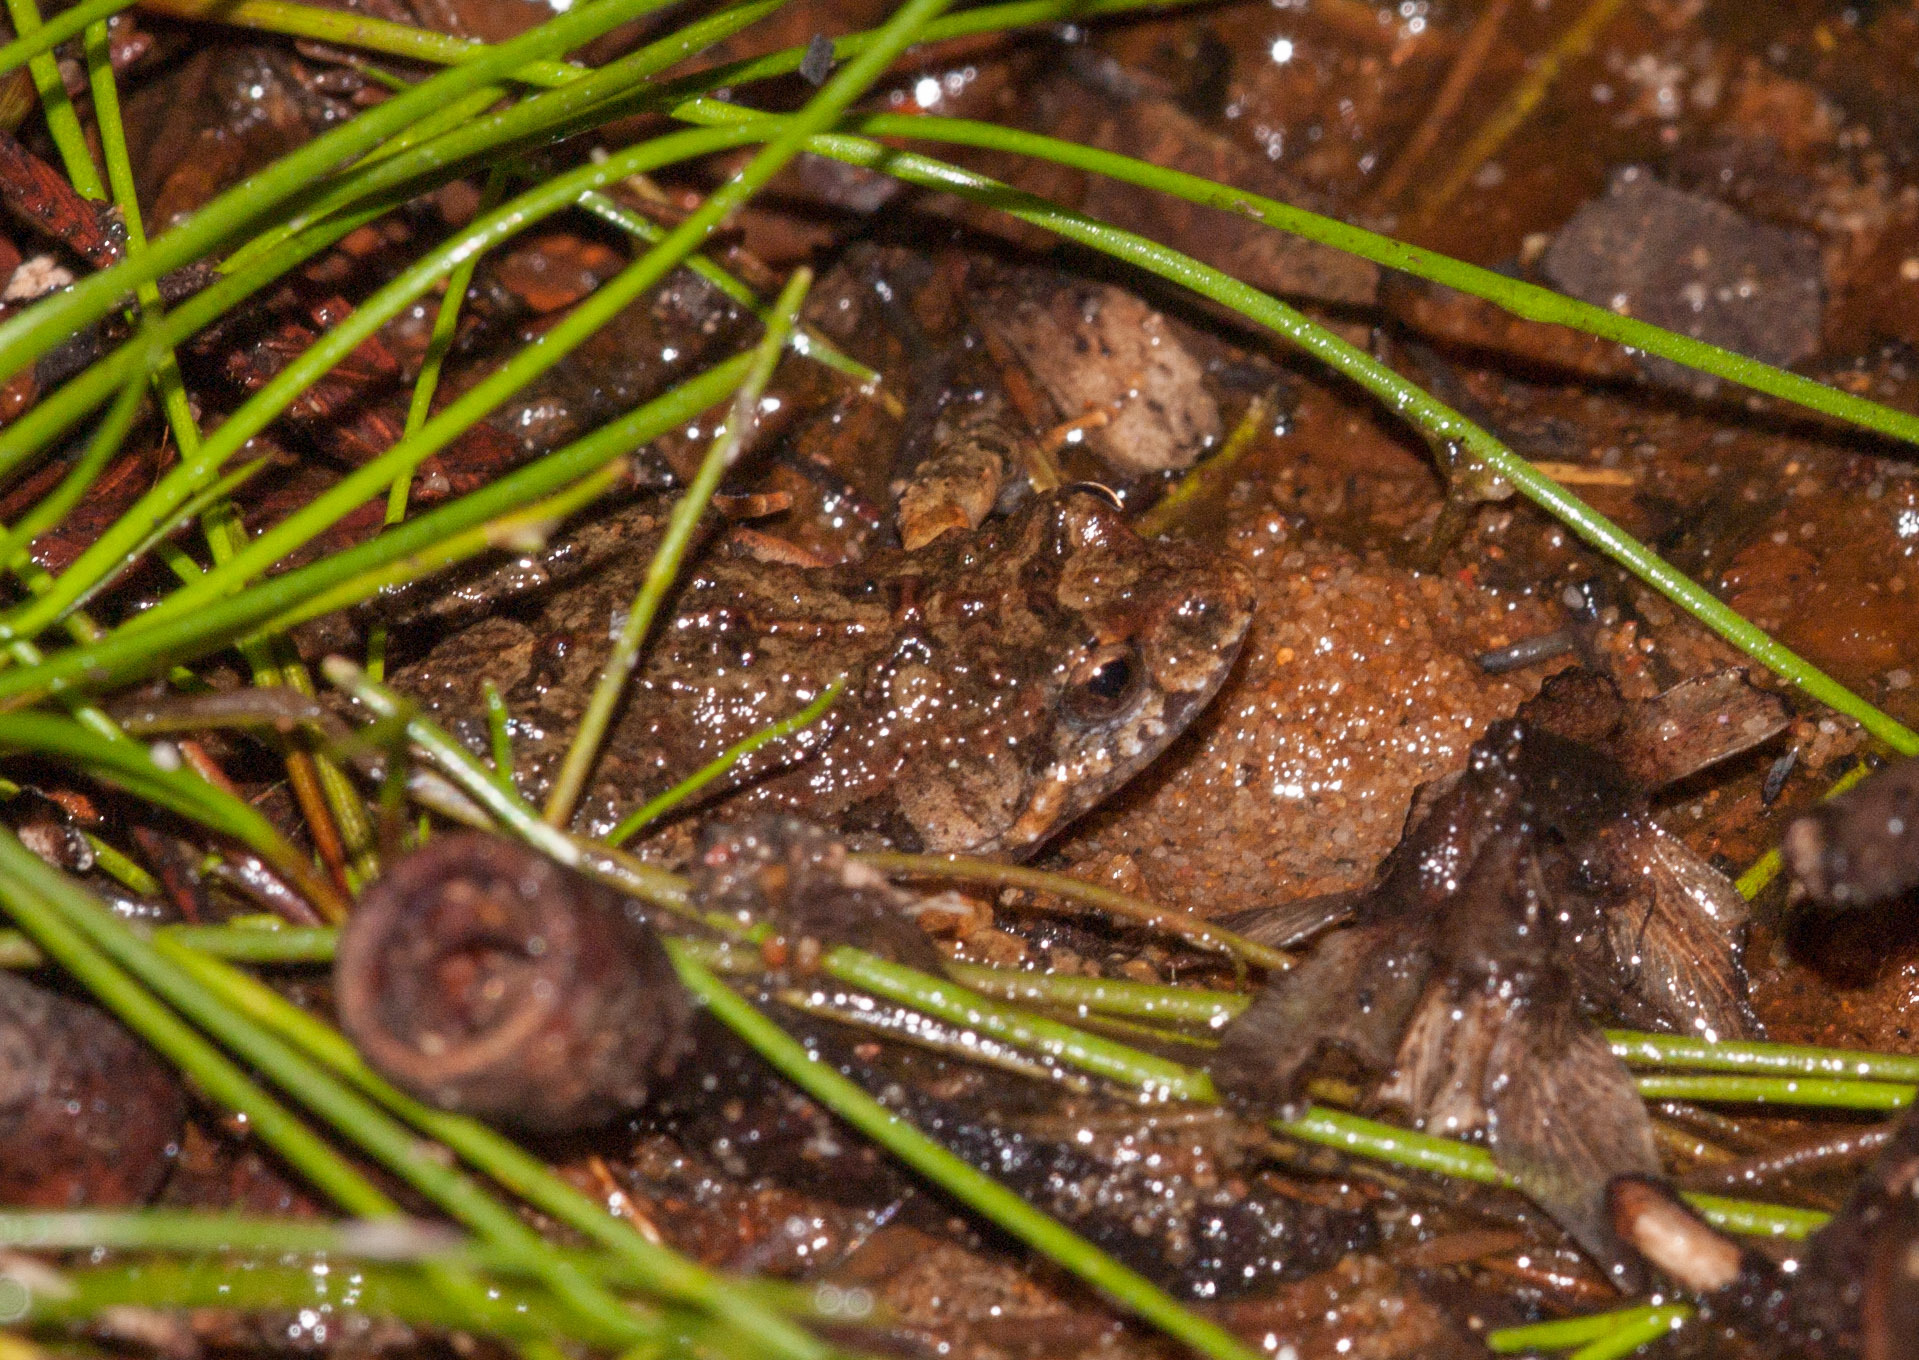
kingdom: Animalia
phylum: Chordata
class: Amphibia
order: Anura
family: Myobatrachidae
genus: Crinia
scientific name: Crinia signifera
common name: Brown froglet
